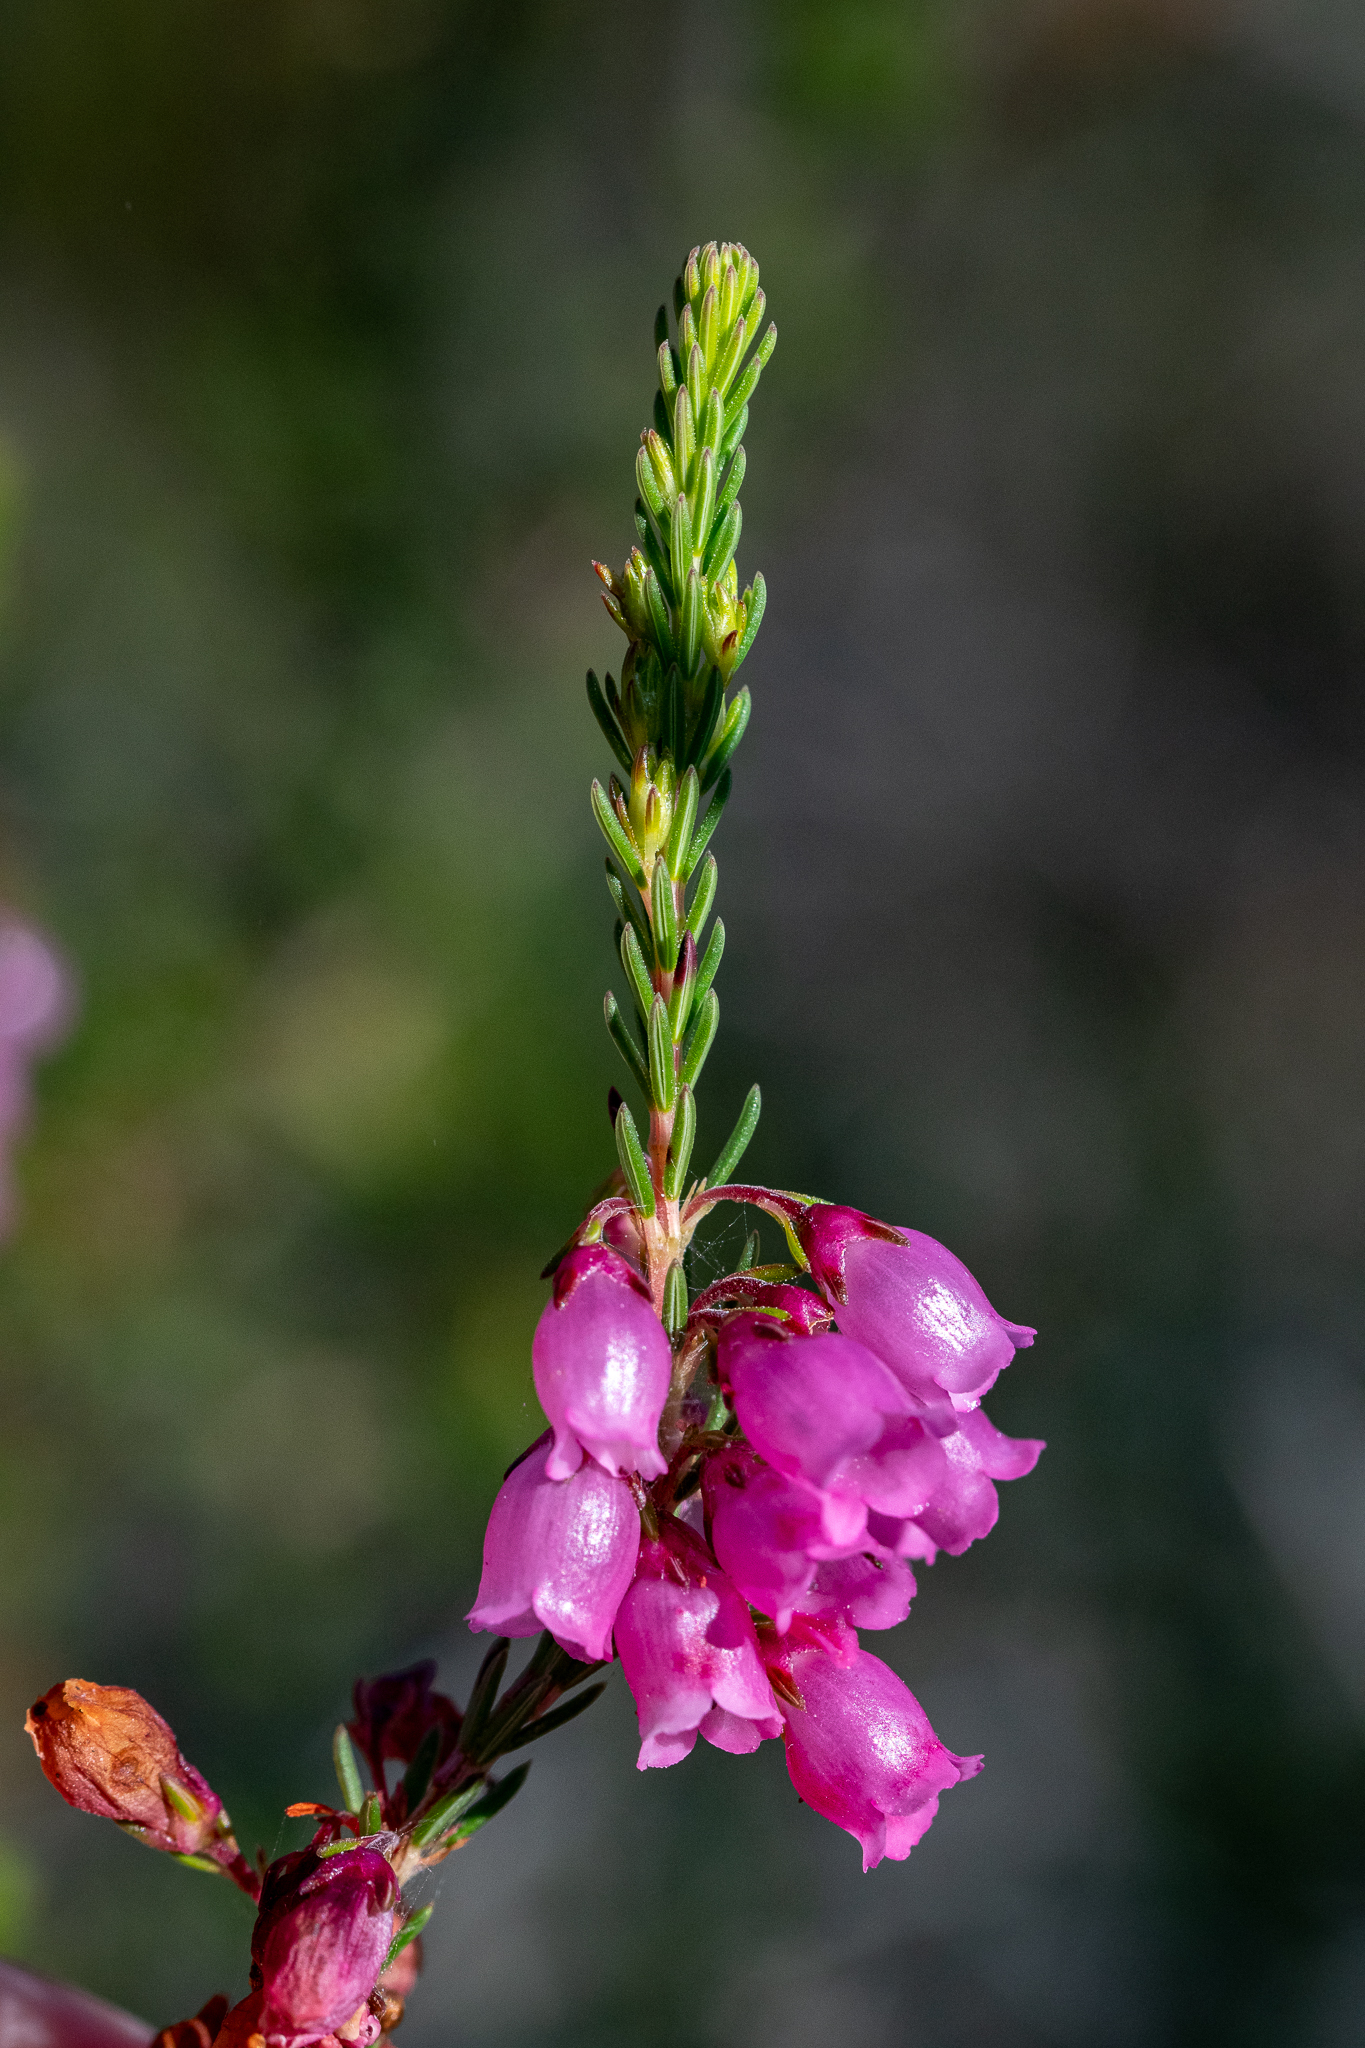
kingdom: Plantae
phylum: Tracheophyta
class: Magnoliopsida
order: Ericales
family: Ericaceae
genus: Erica
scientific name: Erica axilliflora
